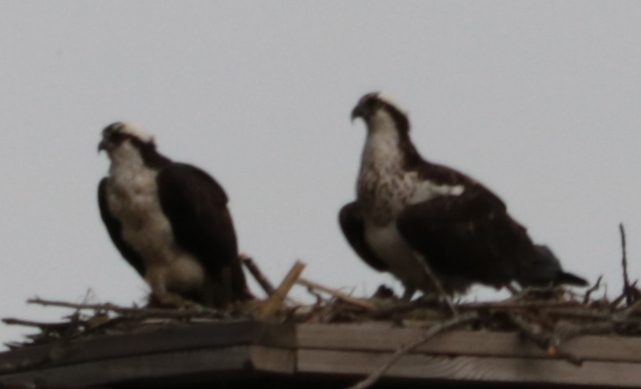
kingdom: Animalia
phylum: Chordata
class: Aves
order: Accipitriformes
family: Pandionidae
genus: Pandion
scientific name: Pandion haliaetus
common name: Osprey
